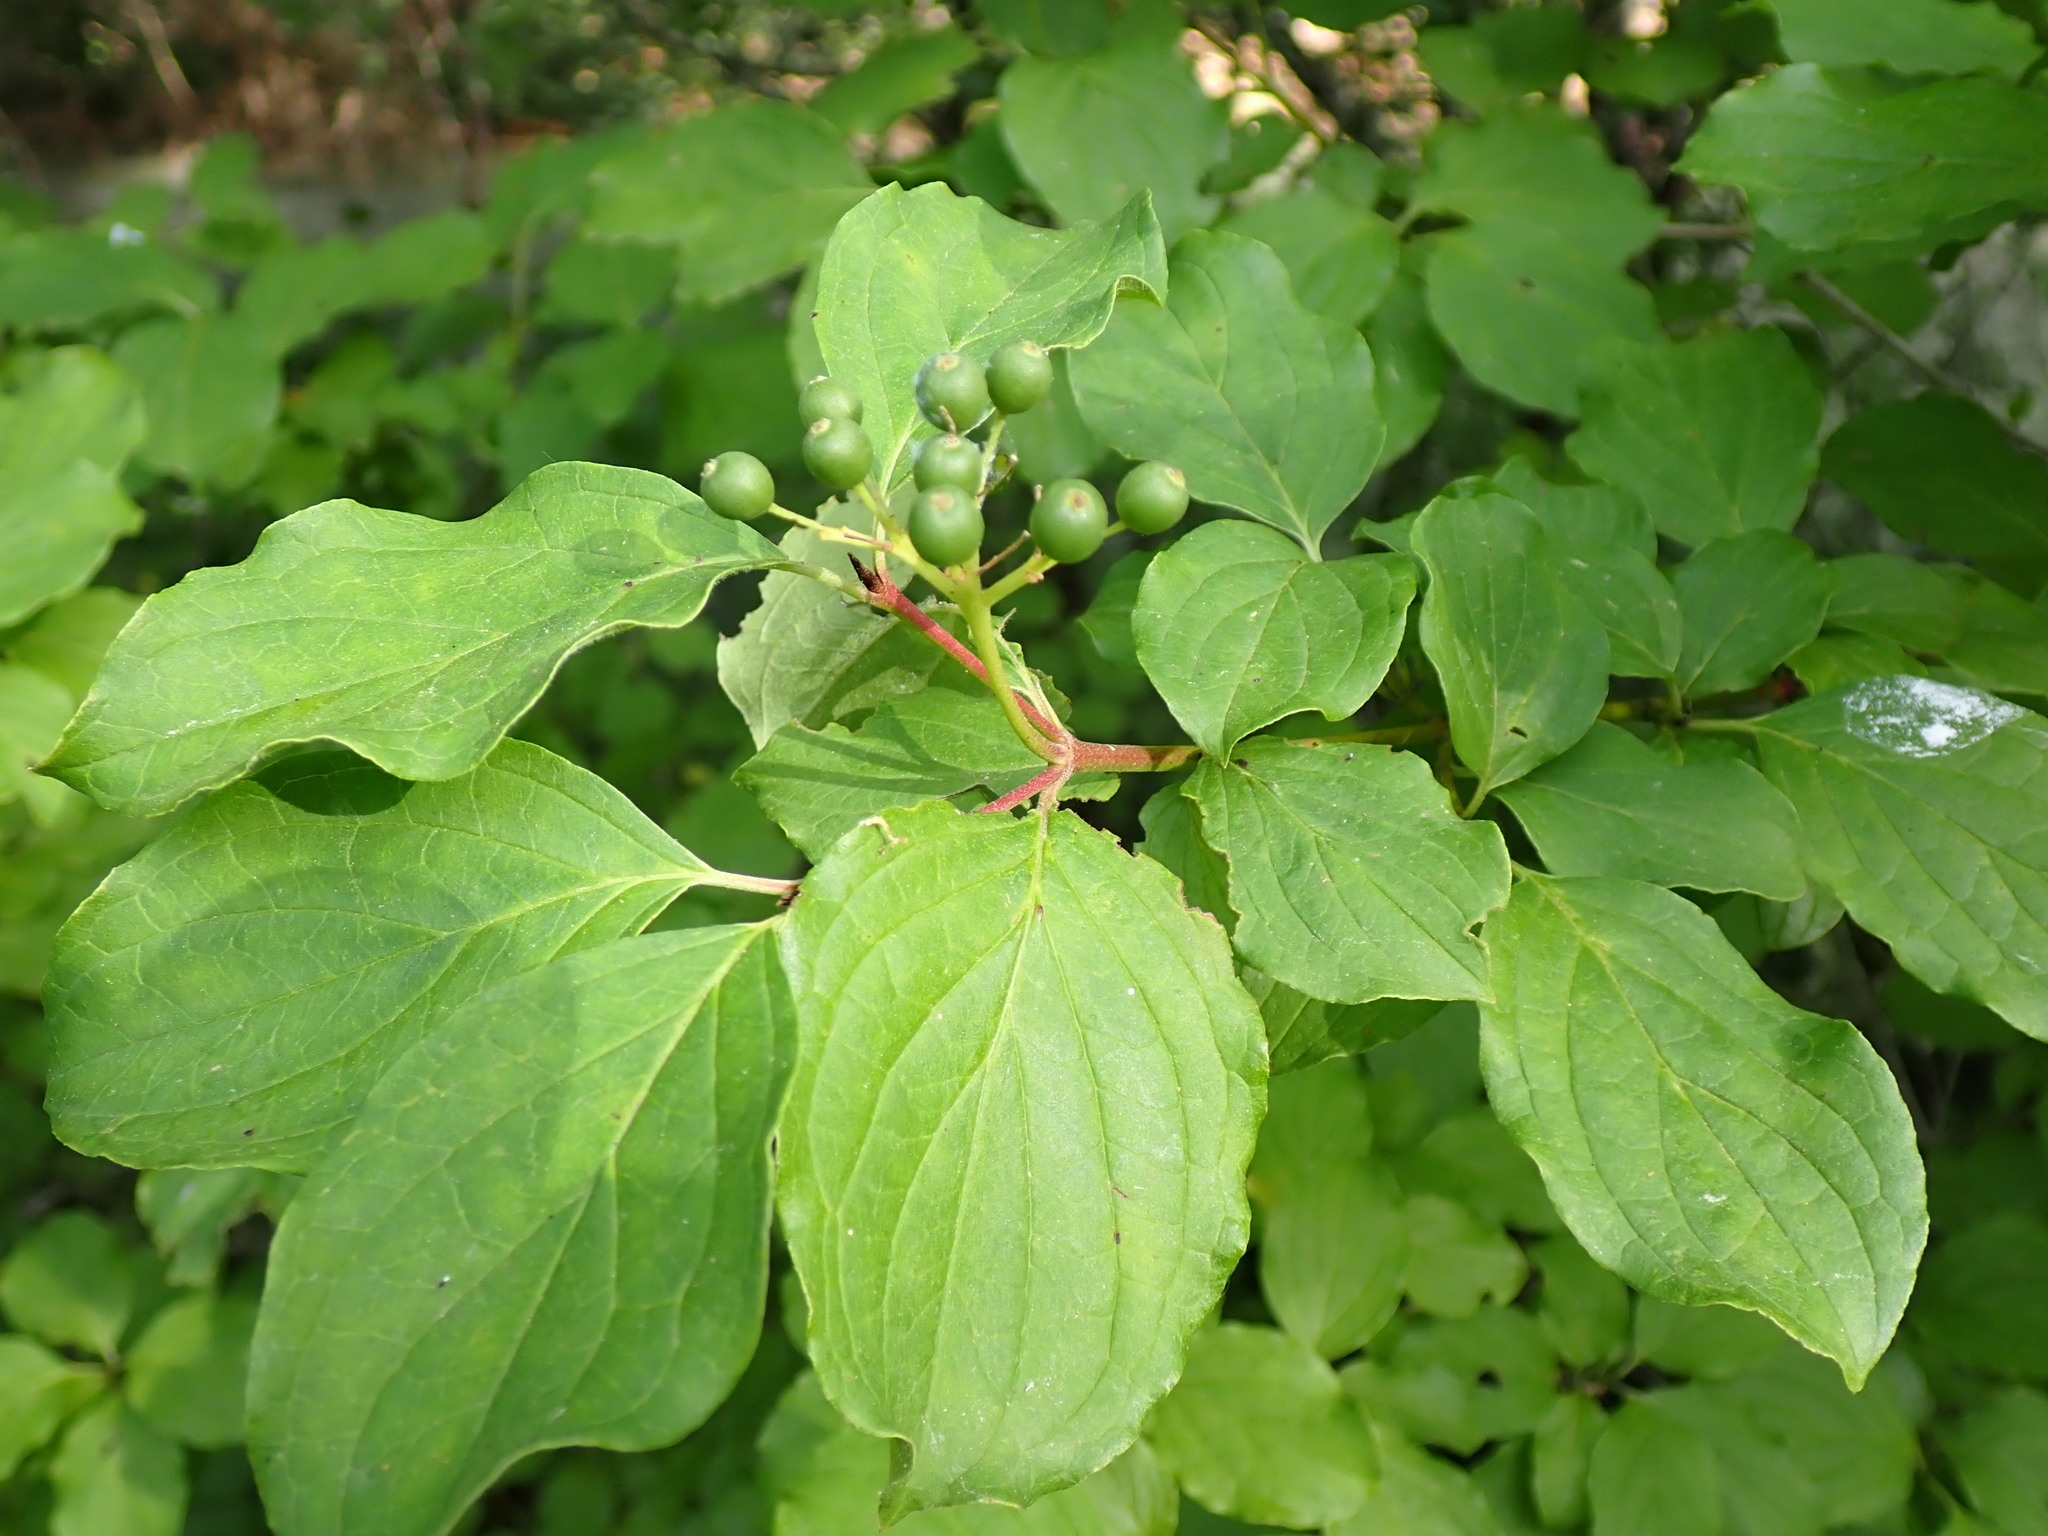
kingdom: Plantae
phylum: Tracheophyta
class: Magnoliopsida
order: Cornales
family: Cornaceae
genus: Cornus
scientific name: Cornus sanguinea
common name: Dogwood
